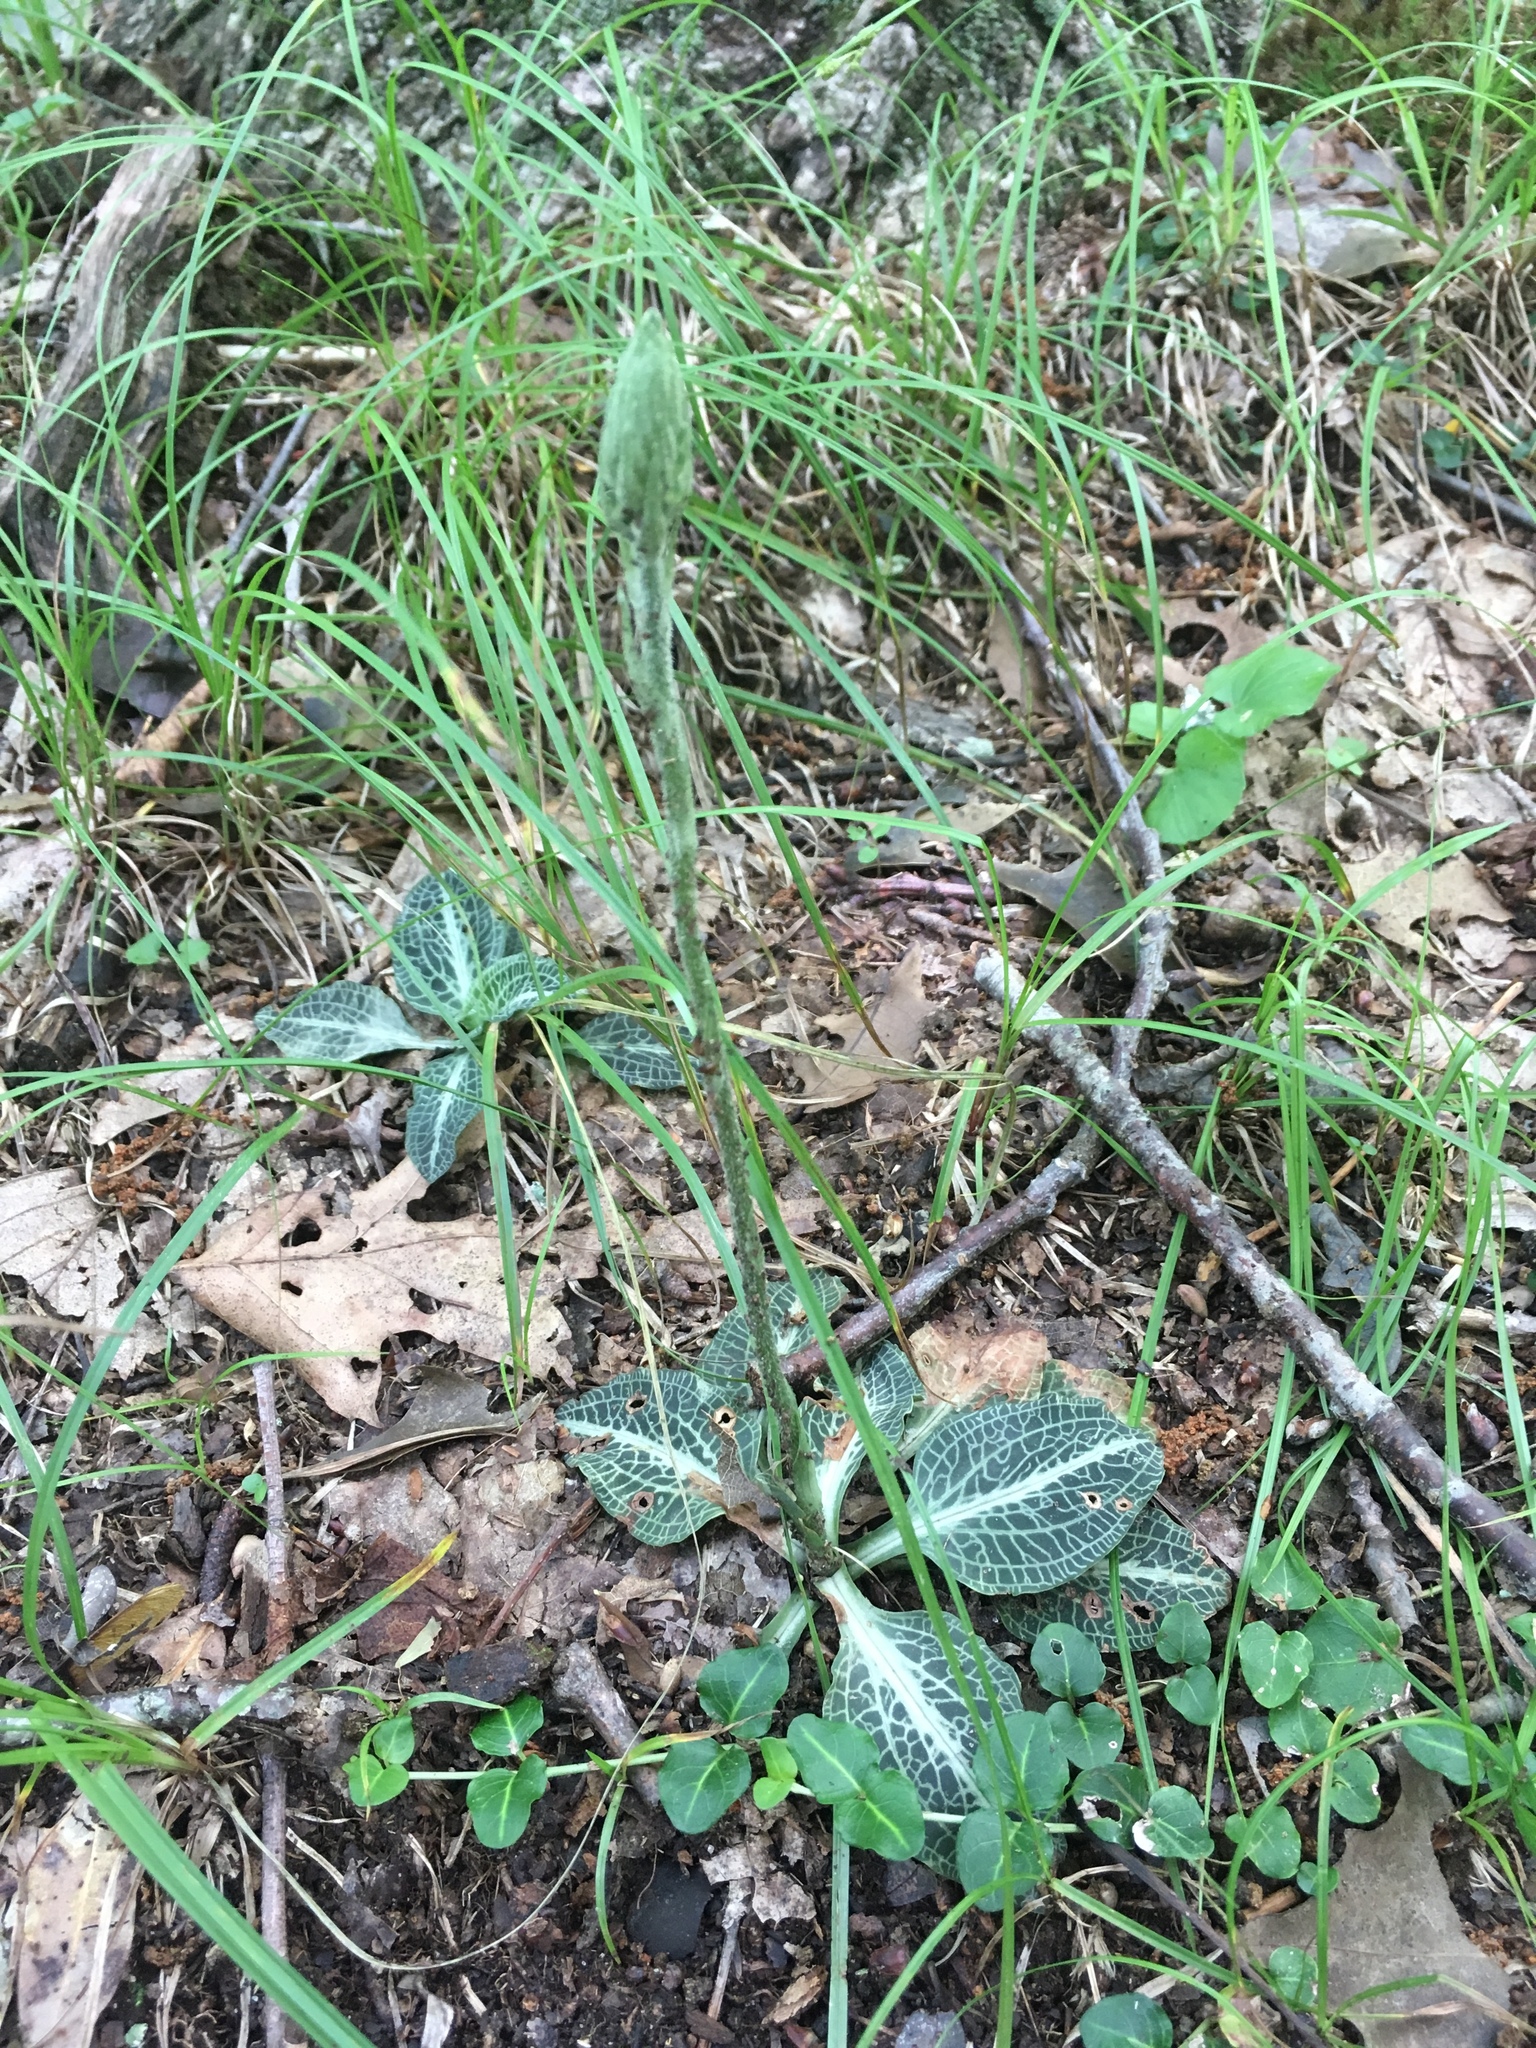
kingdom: Plantae
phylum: Tracheophyta
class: Liliopsida
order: Asparagales
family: Orchidaceae
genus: Goodyera
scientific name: Goodyera pubescens
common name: Downy rattlesnake-plantain
